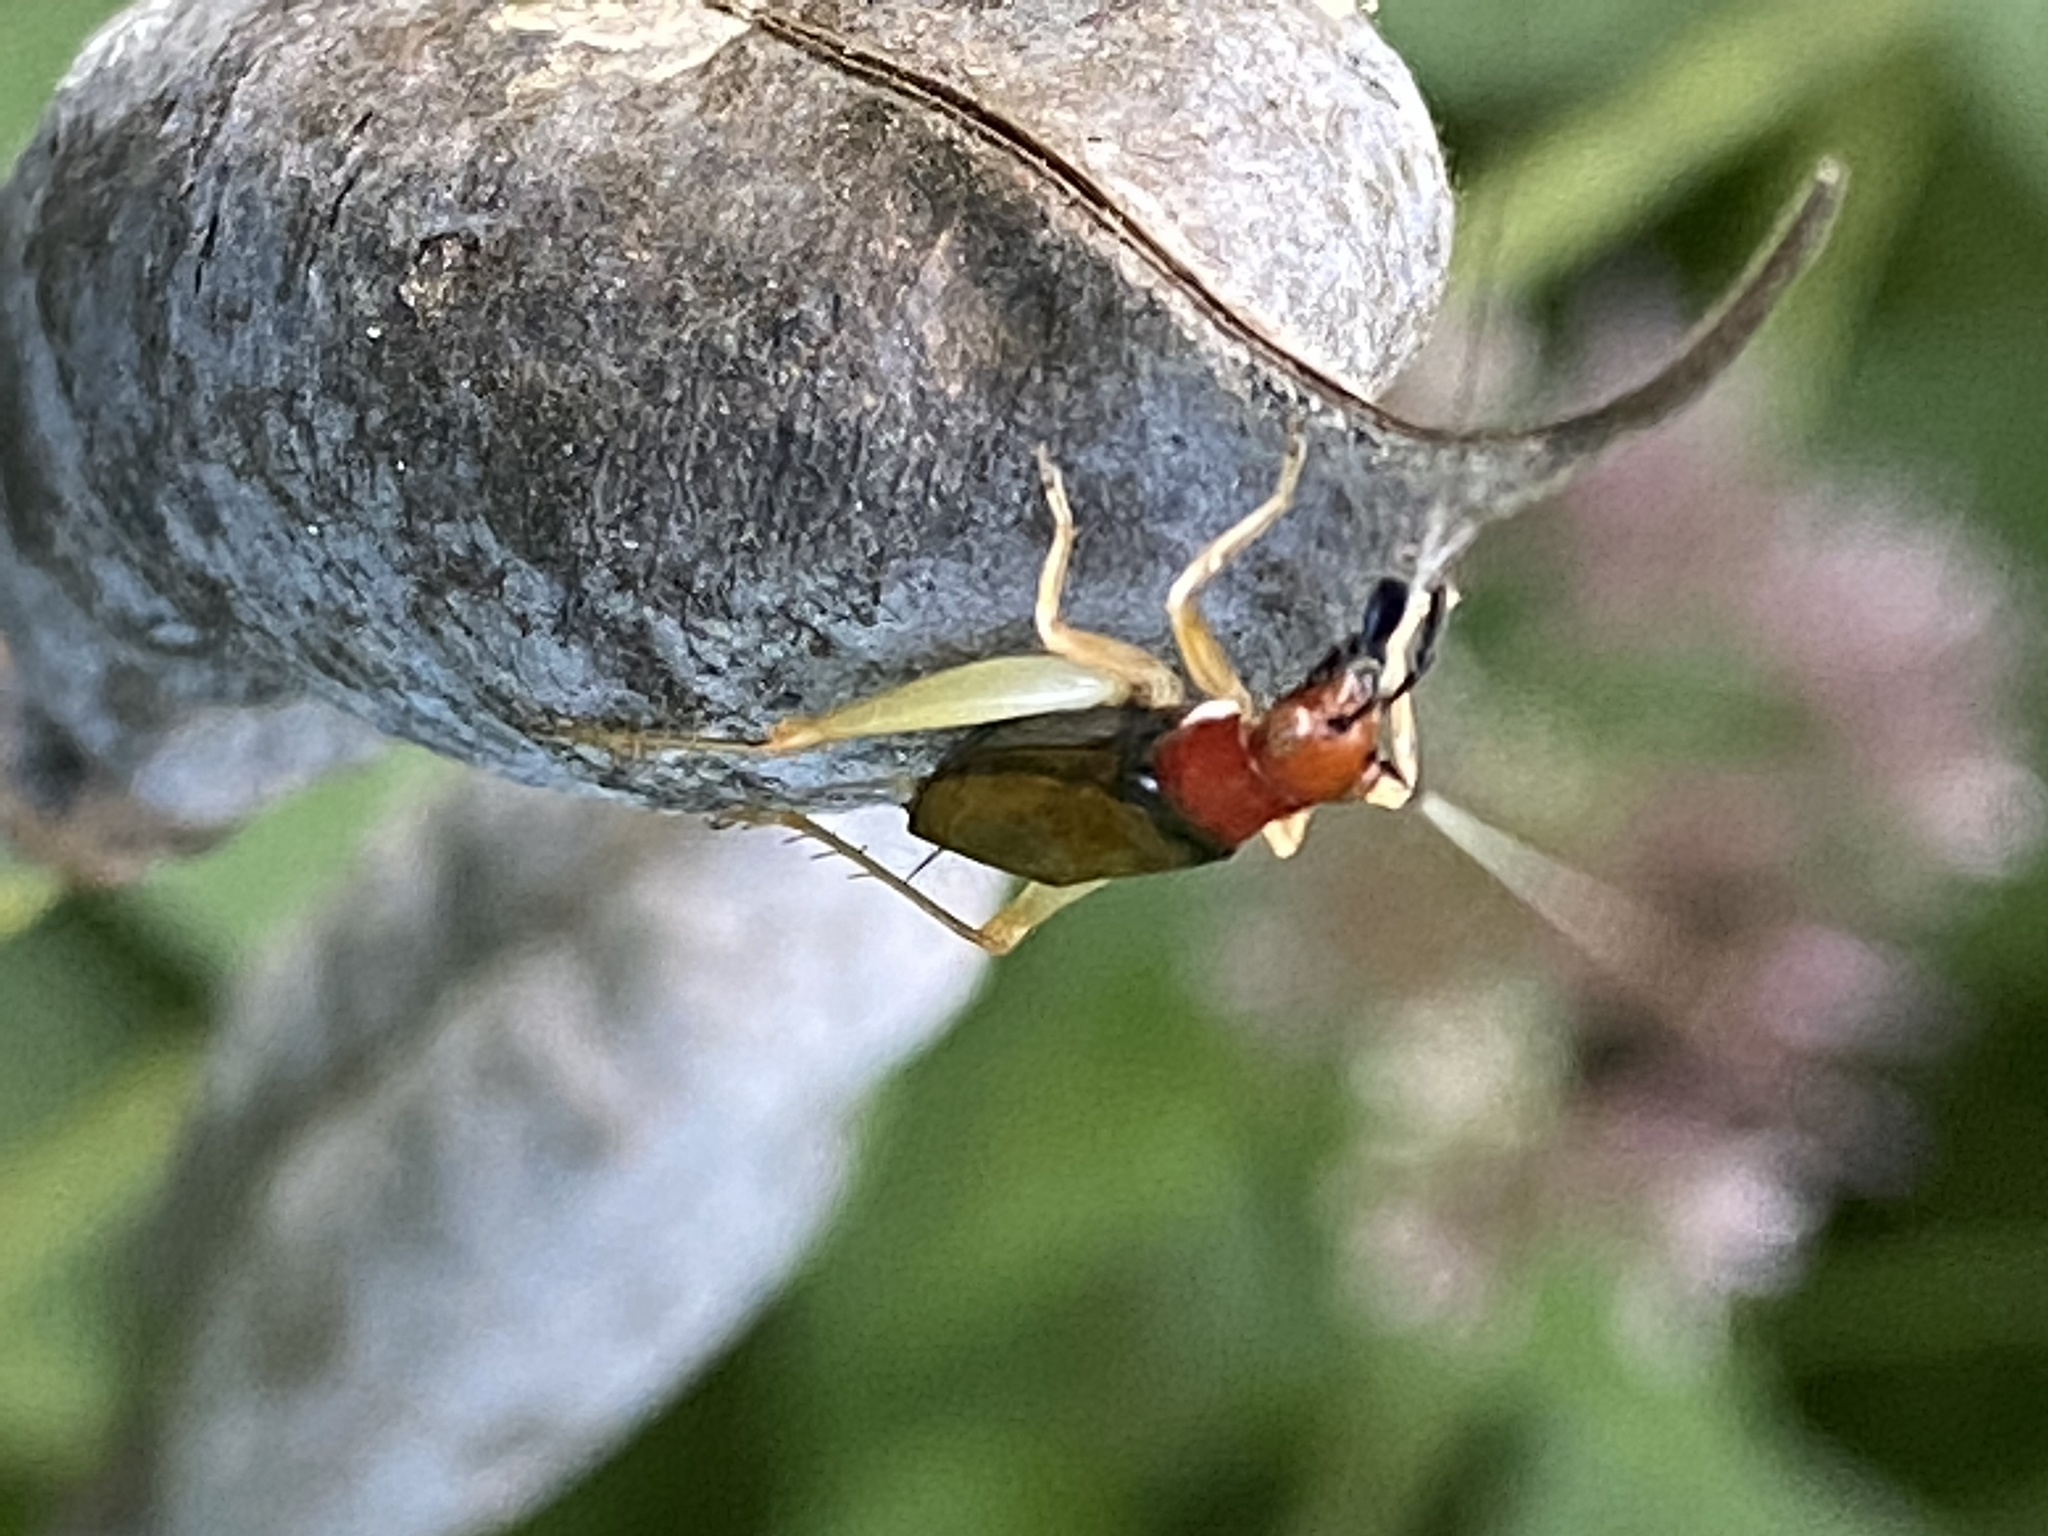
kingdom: Animalia
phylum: Arthropoda
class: Insecta
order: Orthoptera
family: Trigonidiidae
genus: Phyllopalpus
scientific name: Phyllopalpus pulchellus
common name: Handsome trig
